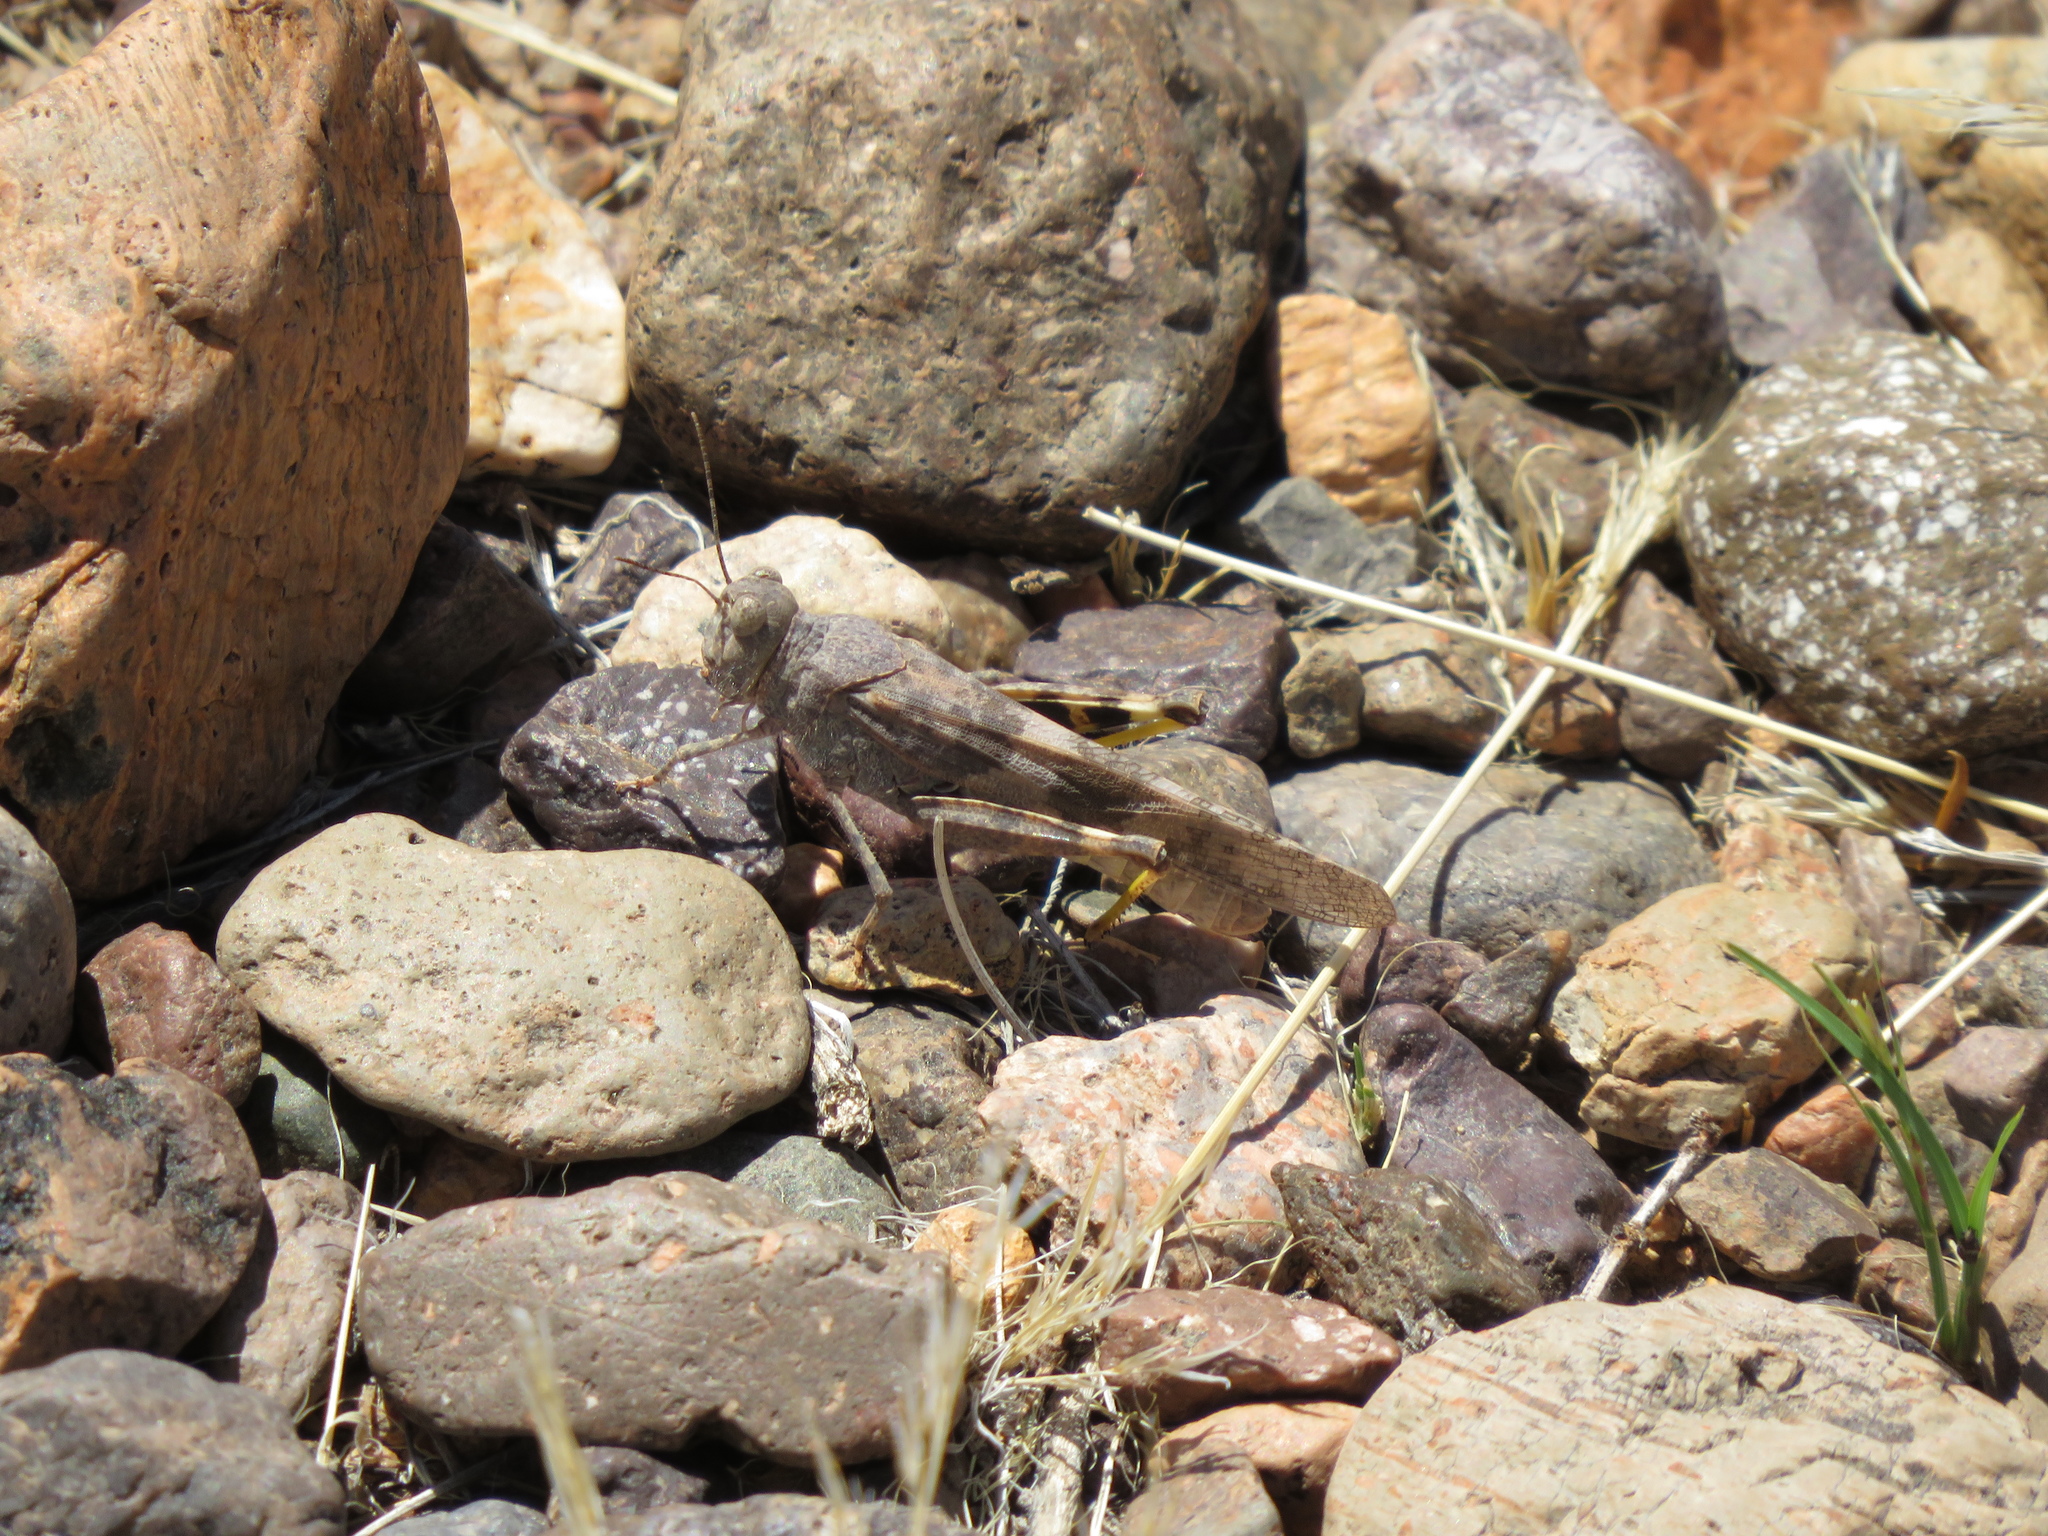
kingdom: Animalia
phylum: Arthropoda
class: Insecta
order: Orthoptera
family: Acrididae
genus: Trimerotropis
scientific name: Trimerotropis pallidipennis
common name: Pallid-winged grasshopper
